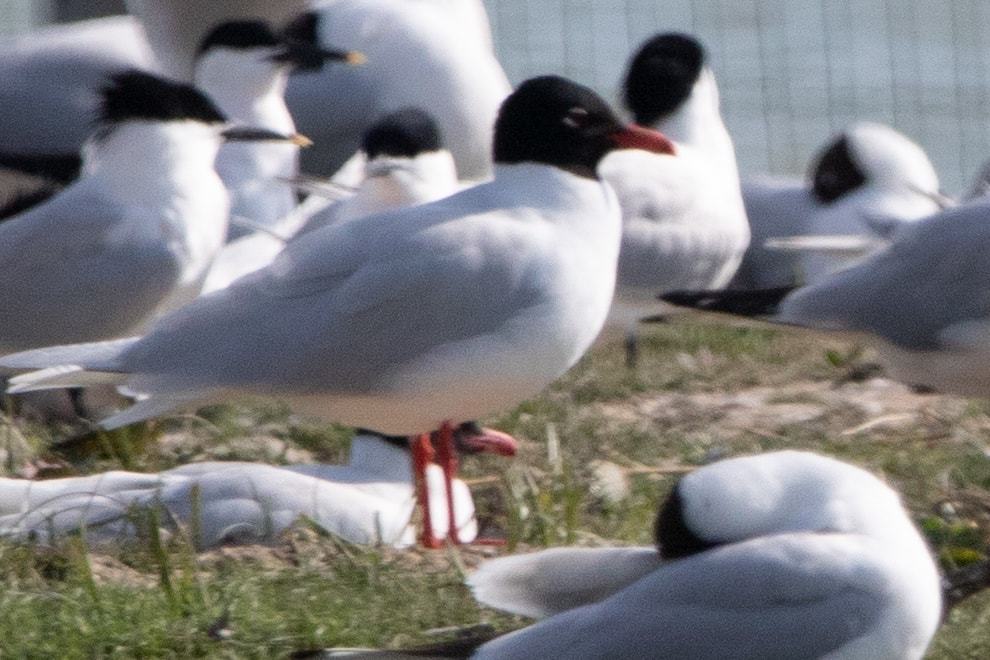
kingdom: Animalia
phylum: Chordata
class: Aves
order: Charadriiformes
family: Laridae
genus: Ichthyaetus
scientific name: Ichthyaetus melanocephalus
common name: Mediterranean gull
